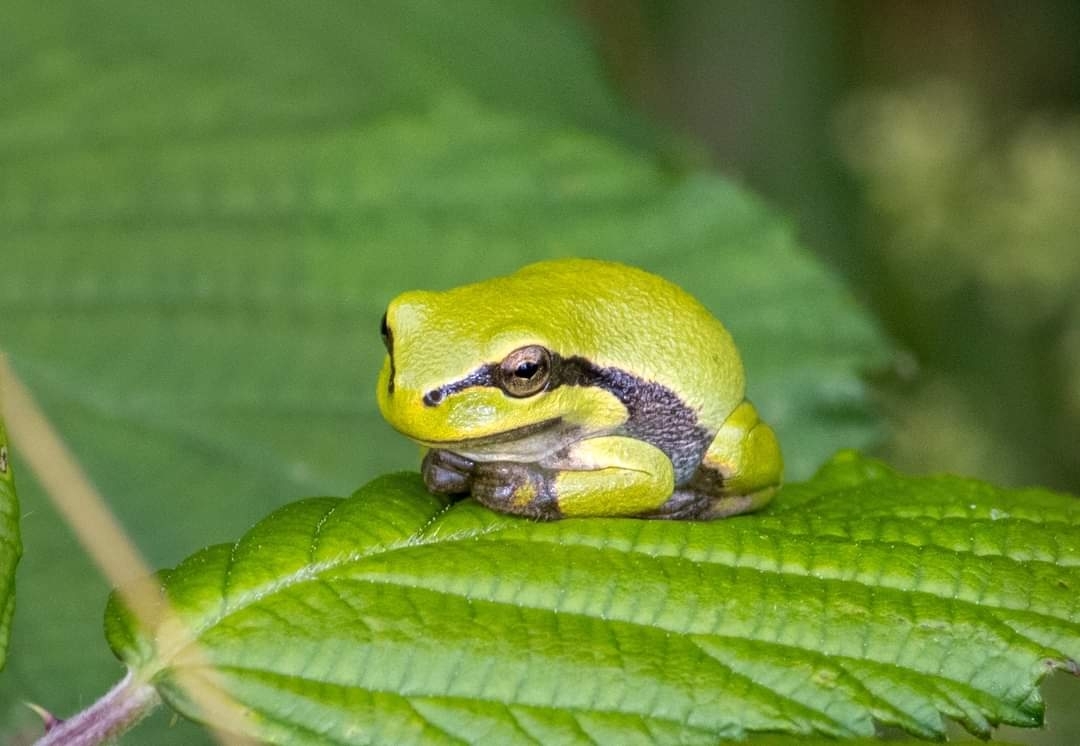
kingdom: Animalia
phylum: Chordata
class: Amphibia
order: Anura
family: Hylidae
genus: Hyla
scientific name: Hyla arborea
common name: Common tree frog
